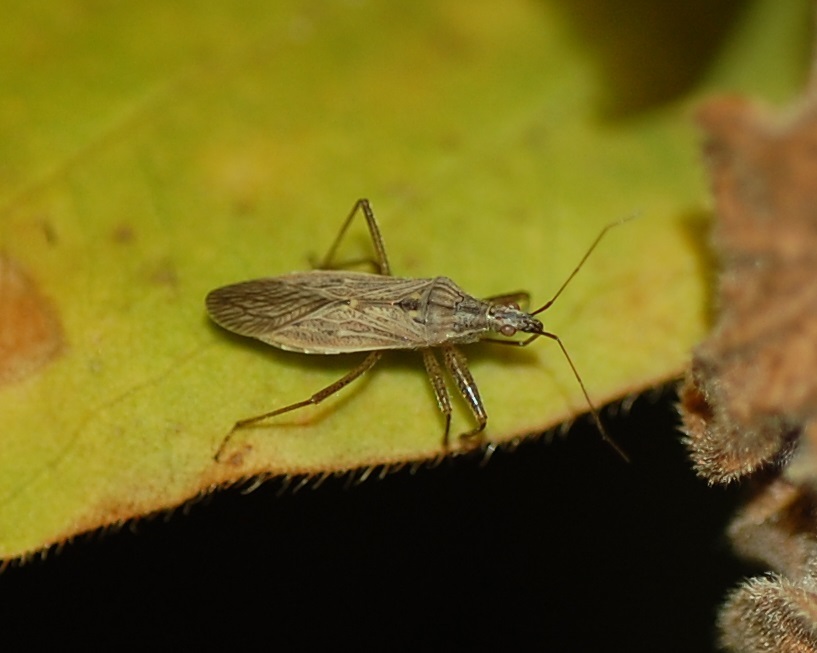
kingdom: Animalia
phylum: Arthropoda
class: Insecta
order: Hemiptera
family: Nabidae
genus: Nabis
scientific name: Nabis americoferus
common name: Common damsel bug
